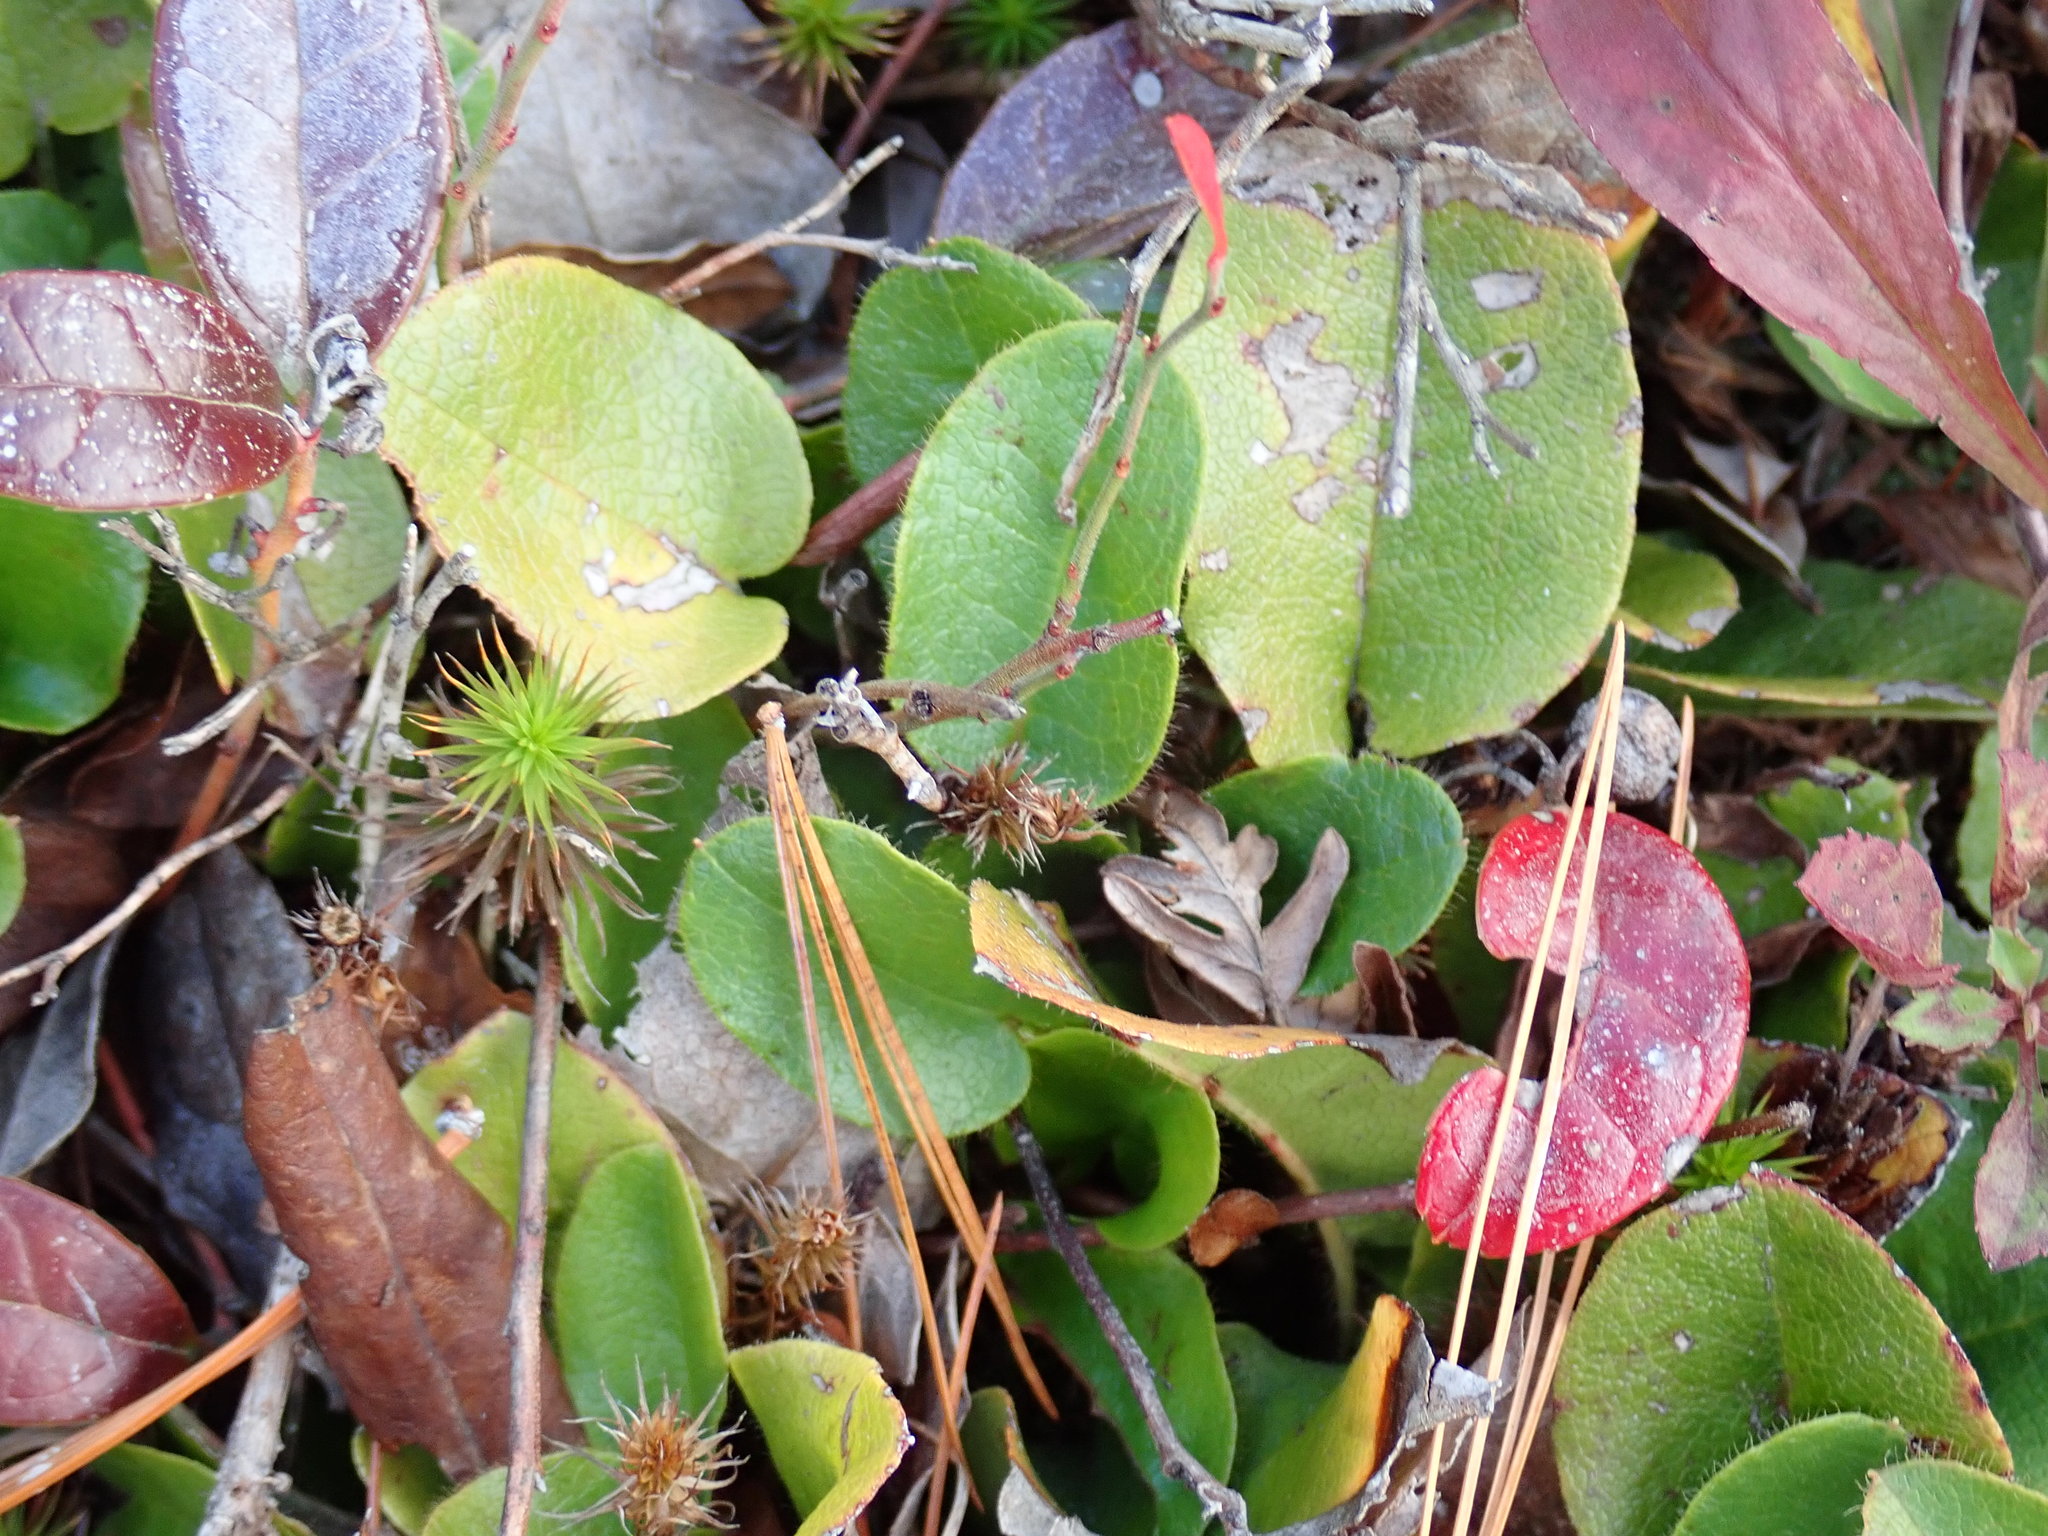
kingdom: Plantae
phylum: Tracheophyta
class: Magnoliopsida
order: Ericales
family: Ericaceae
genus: Epigaea
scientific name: Epigaea repens
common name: Gravelroot
